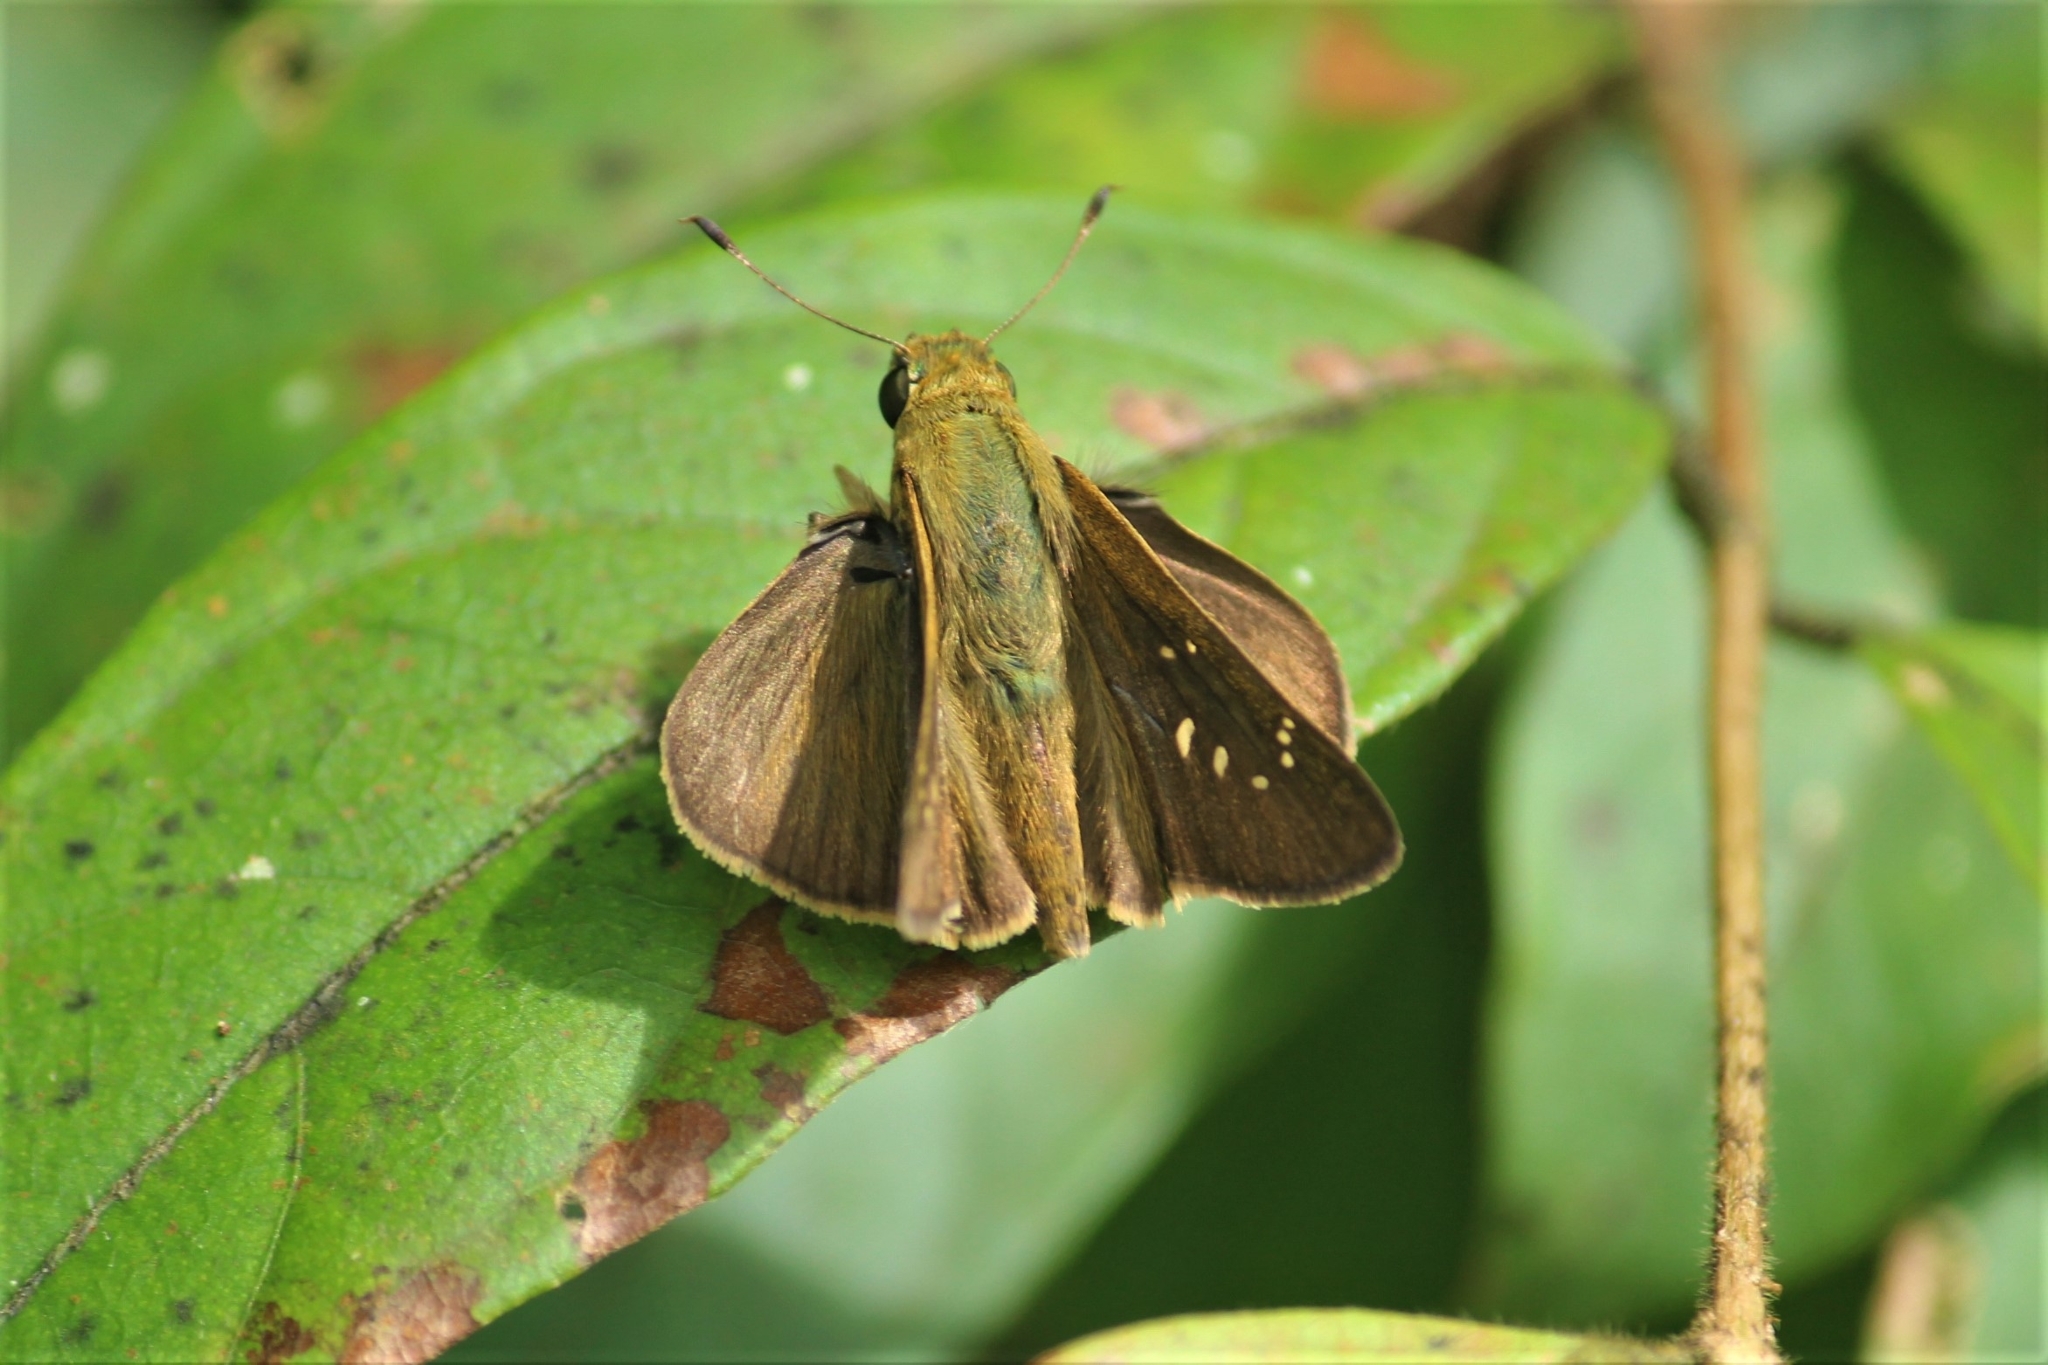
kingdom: Animalia
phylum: Arthropoda
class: Insecta
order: Lepidoptera
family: Hesperiidae
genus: Pelopidas
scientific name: Pelopidas agna
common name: Little branded swift
